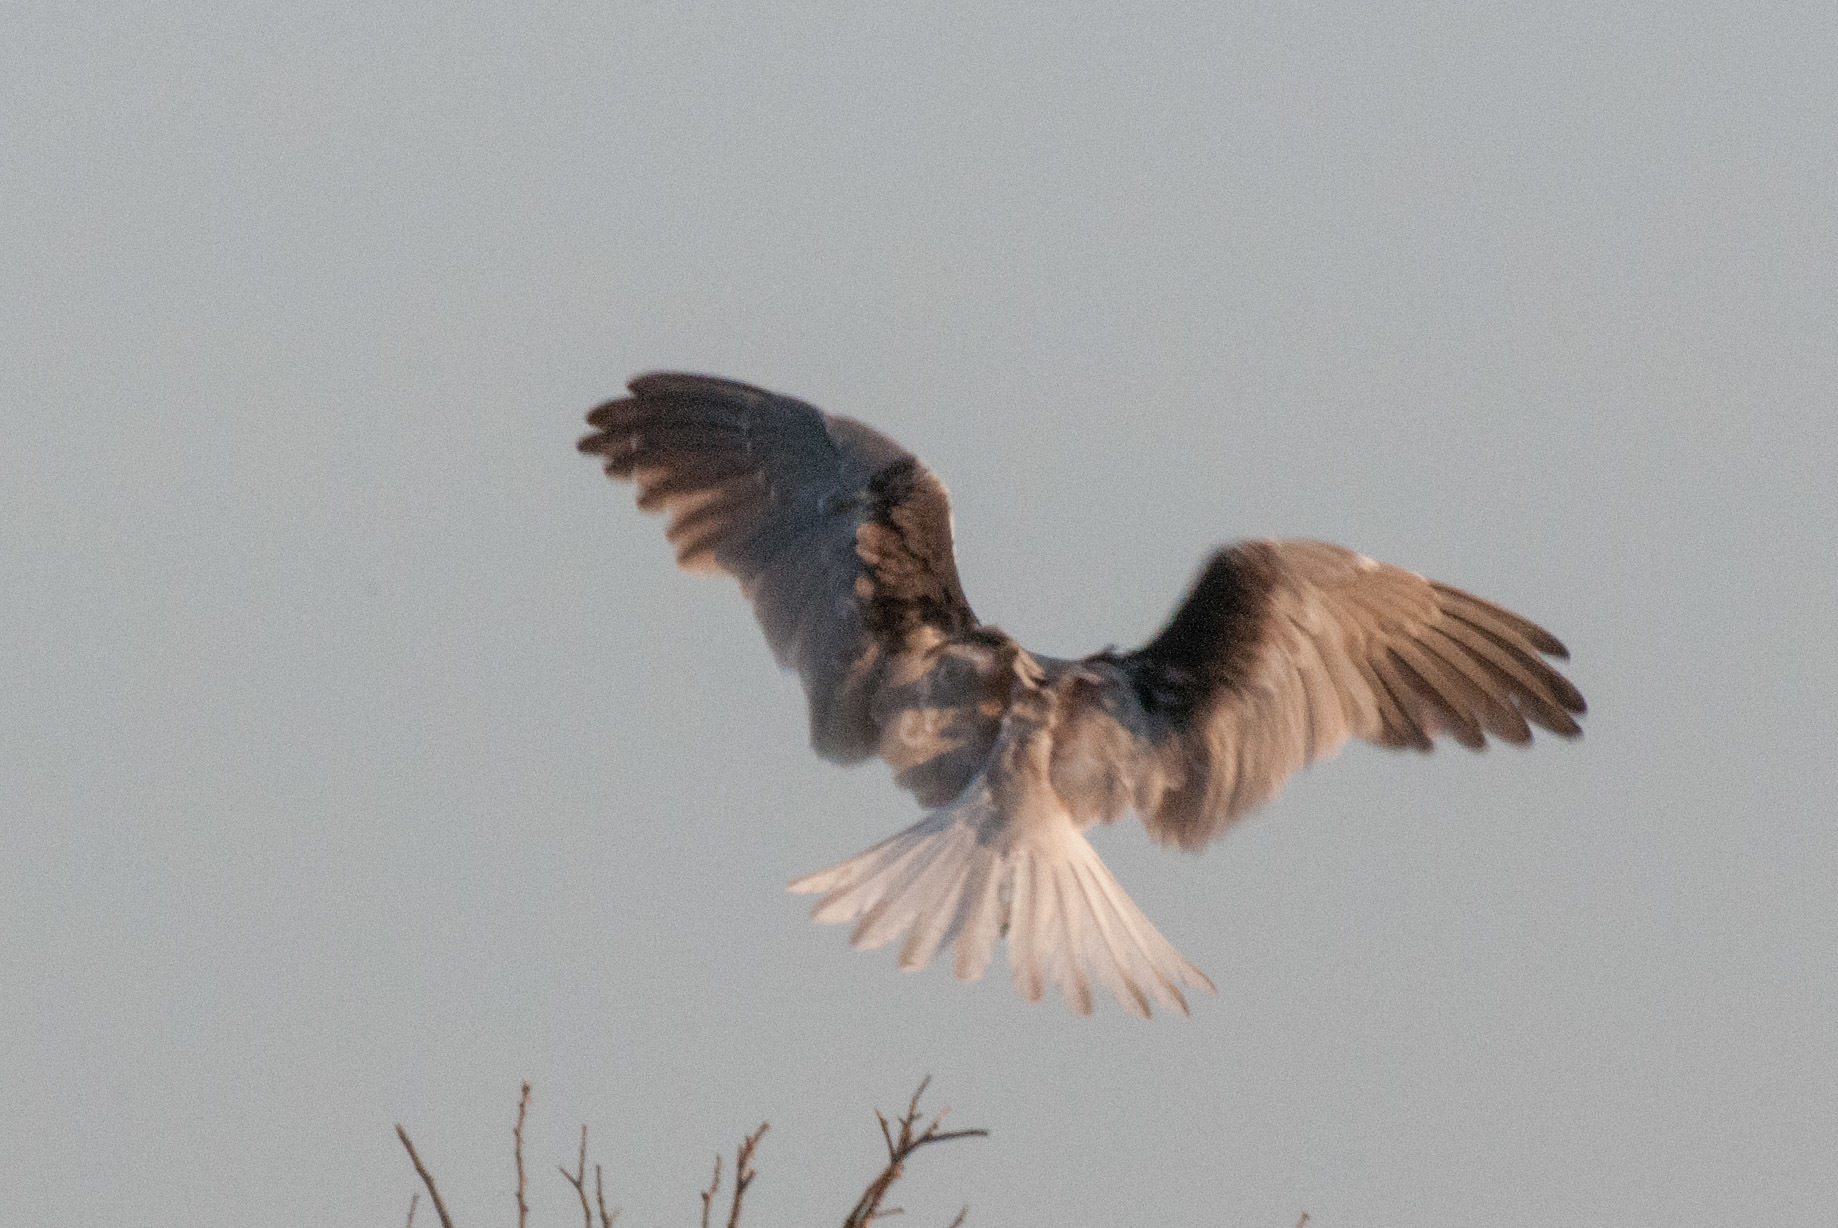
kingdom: Animalia
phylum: Chordata
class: Aves
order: Accipitriformes
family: Accipitridae
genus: Elanus
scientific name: Elanus axillaris
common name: Black-shouldered kite
